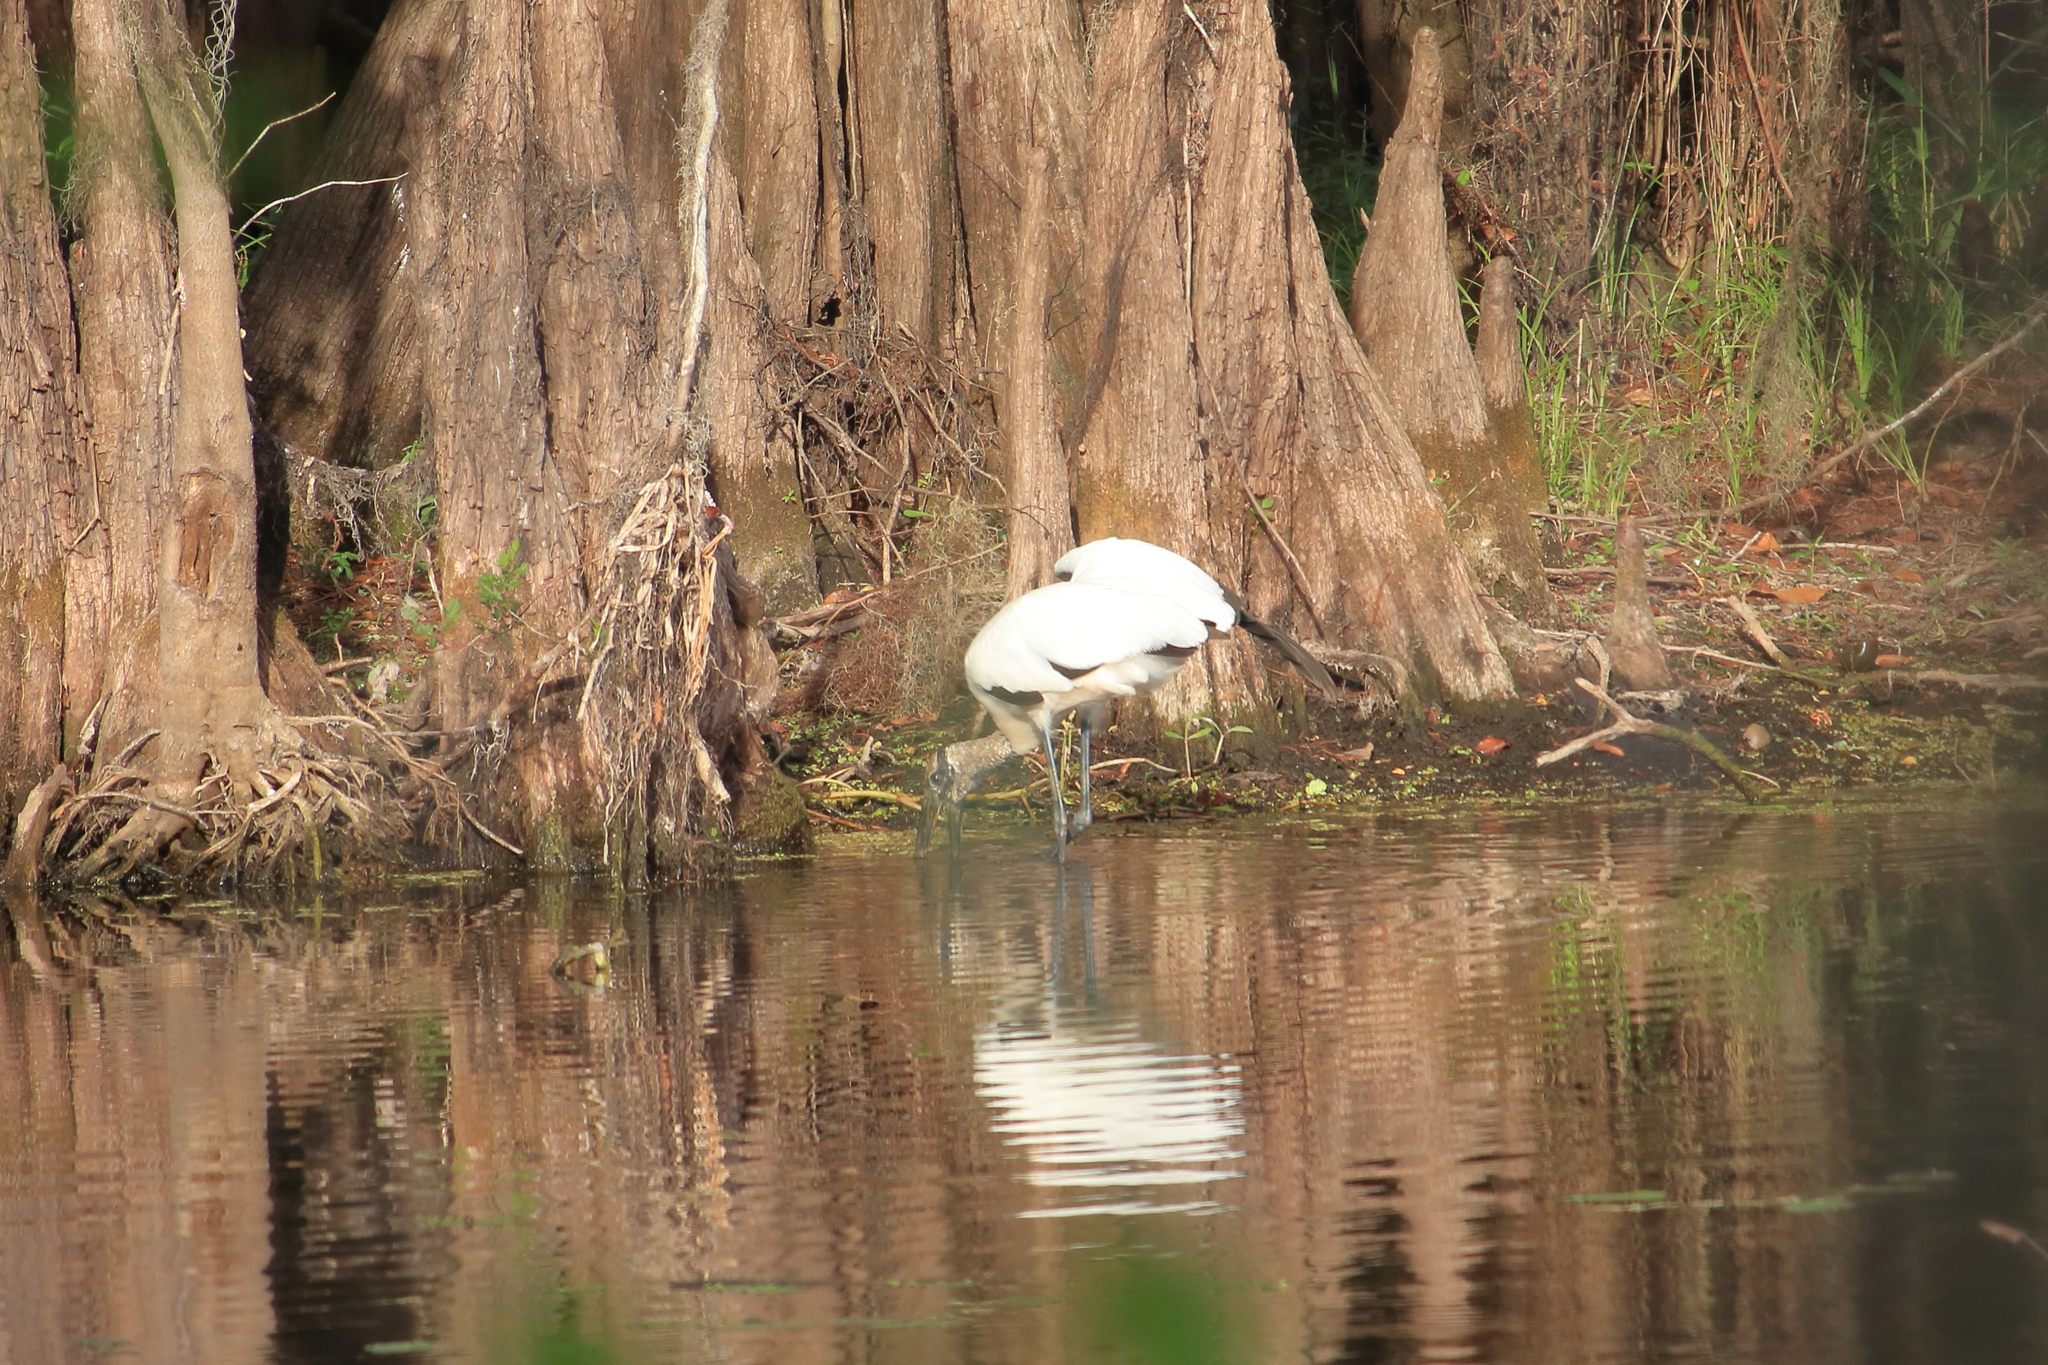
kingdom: Animalia
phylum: Chordata
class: Aves
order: Ciconiiformes
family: Ciconiidae
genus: Mycteria
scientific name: Mycteria americana
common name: Wood stork
